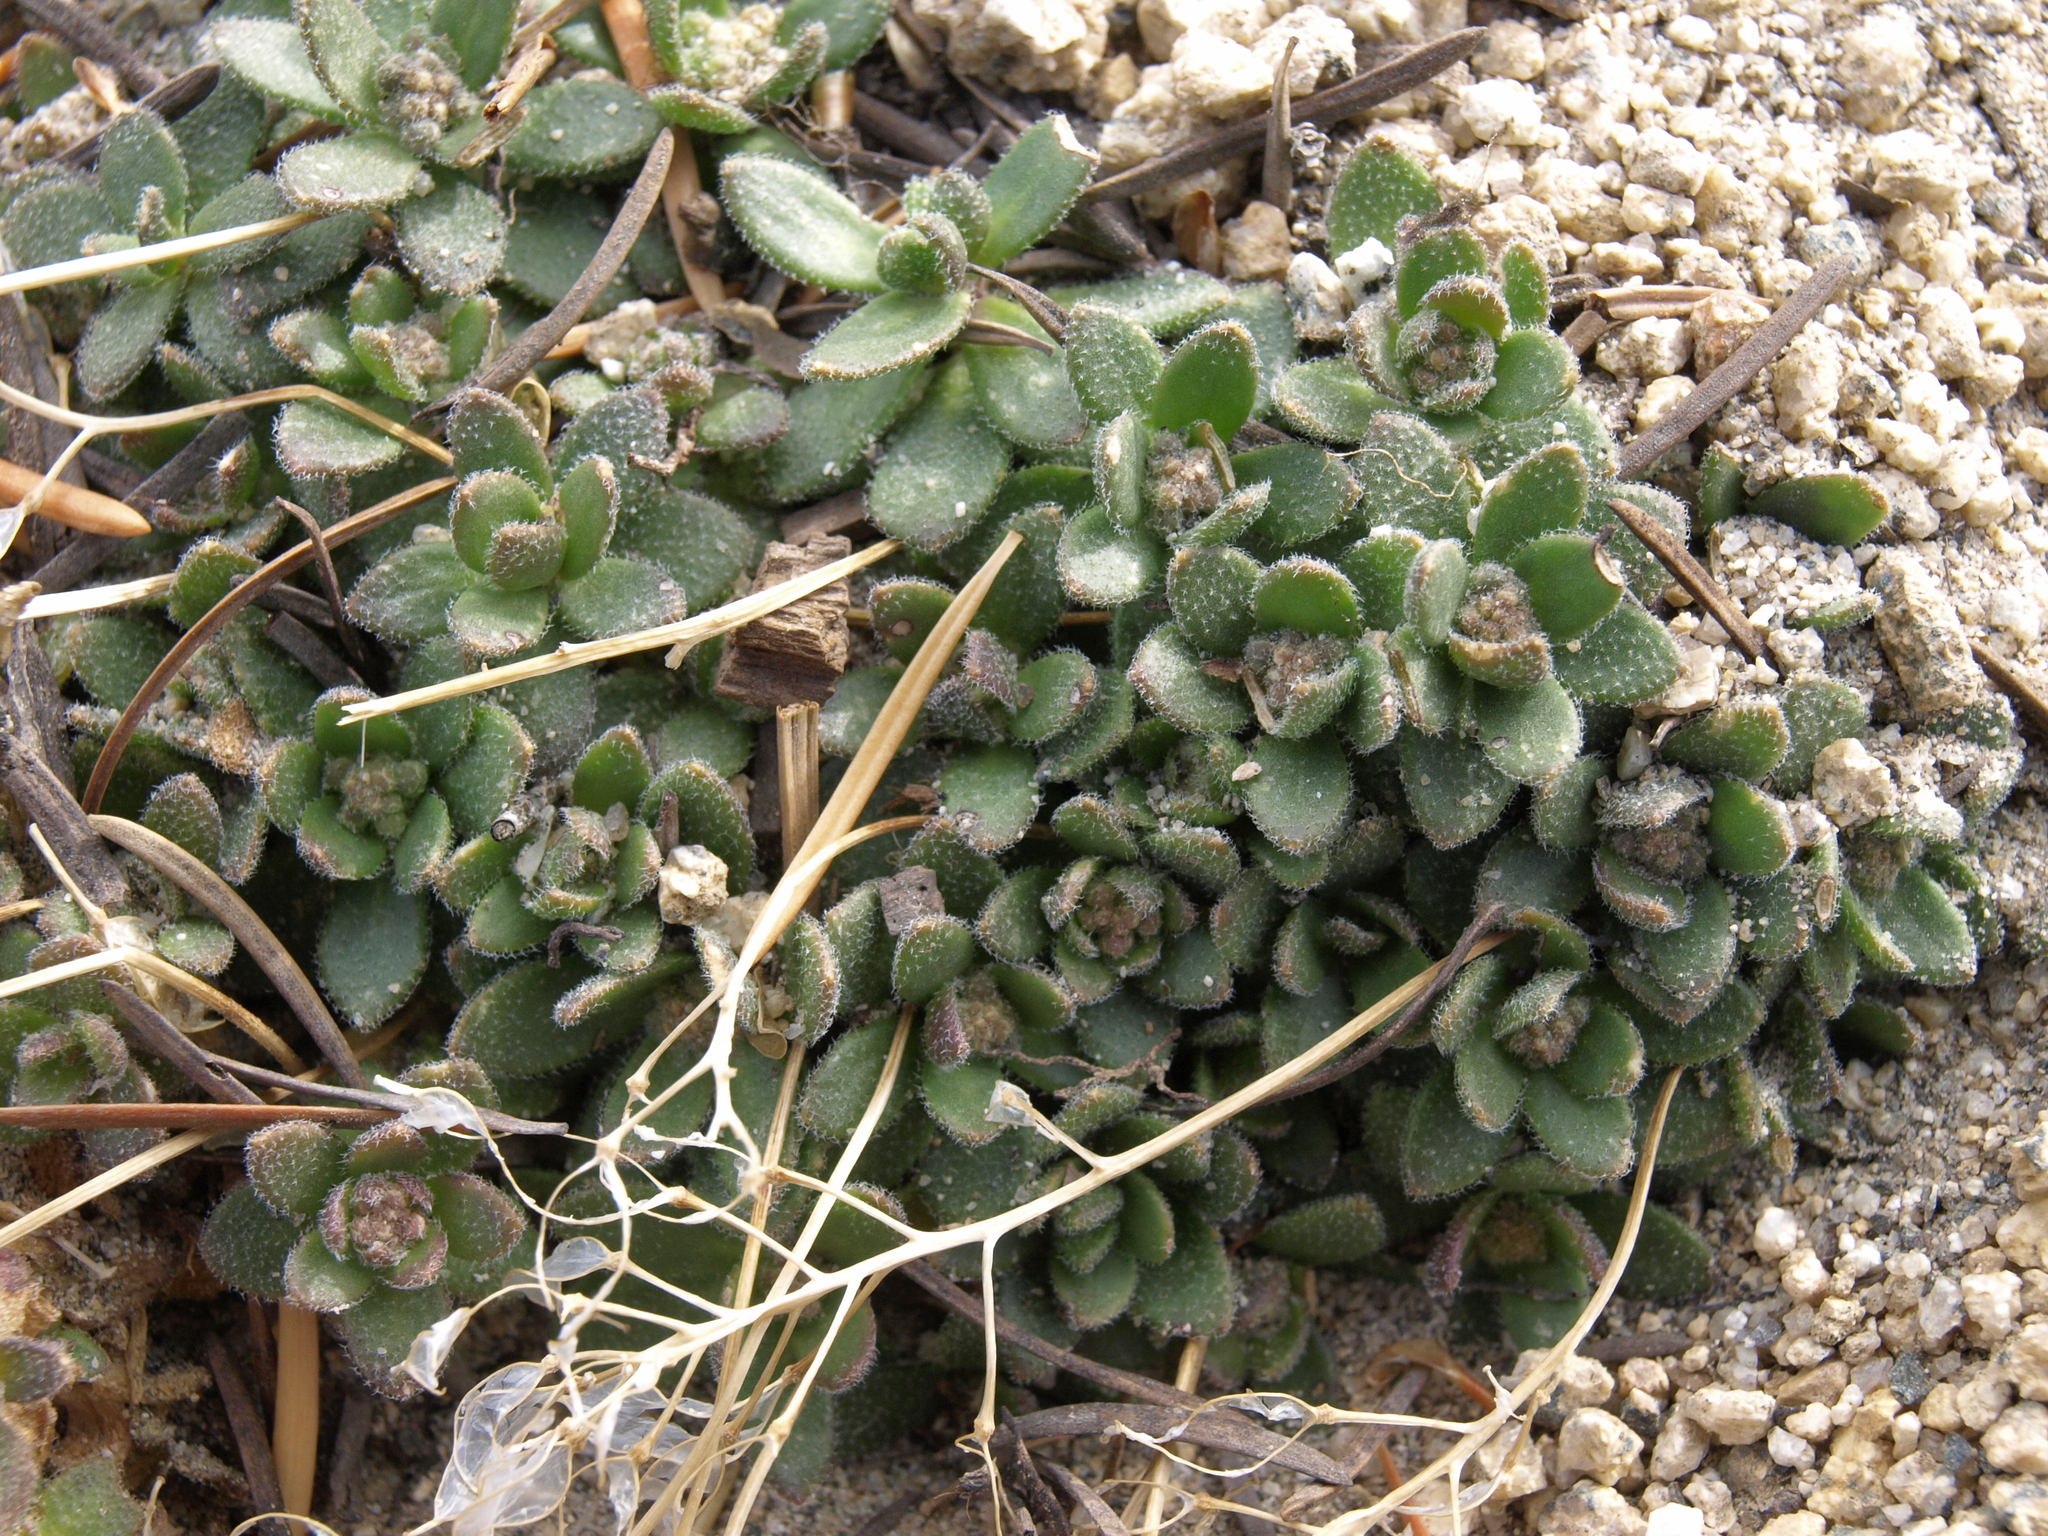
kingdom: Plantae
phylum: Tracheophyta
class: Magnoliopsida
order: Brassicales
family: Brassicaceae
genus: Draba
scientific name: Draba asterophora
